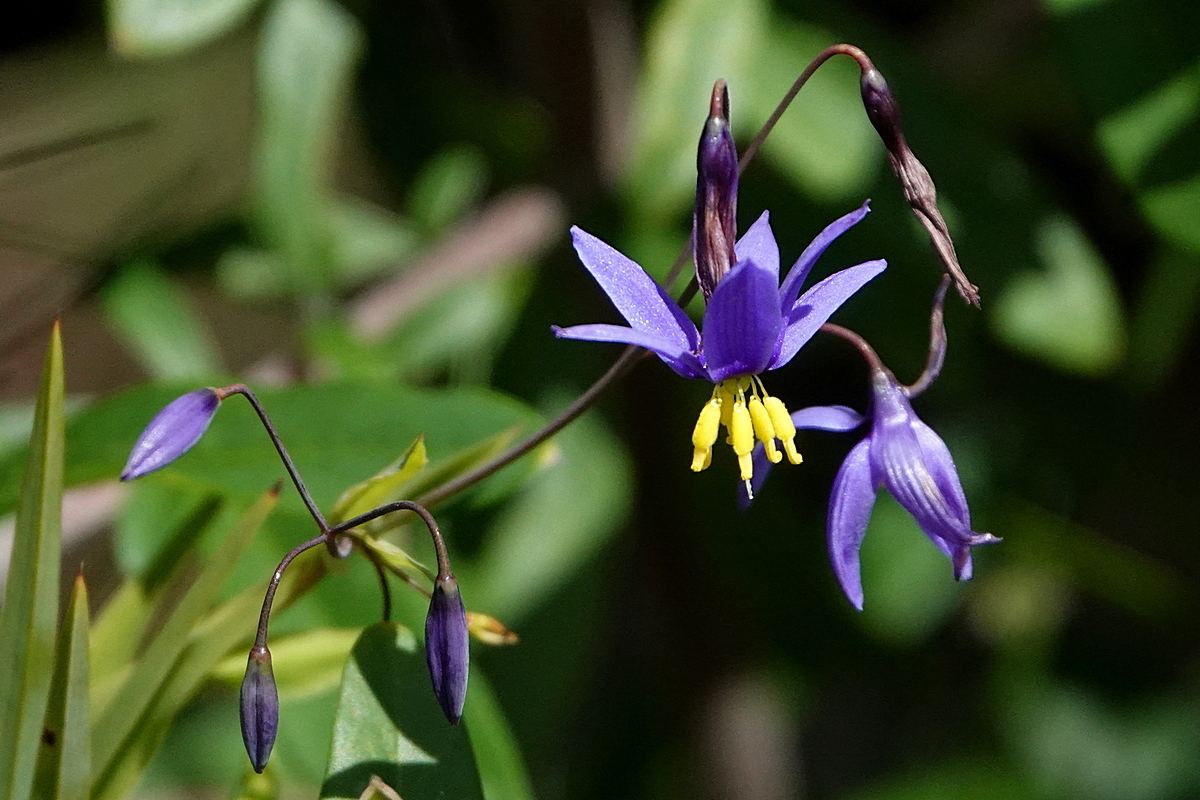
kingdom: Plantae
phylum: Tracheophyta
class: Liliopsida
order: Asparagales
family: Asphodelaceae
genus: Stypandra
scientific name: Stypandra glauca
